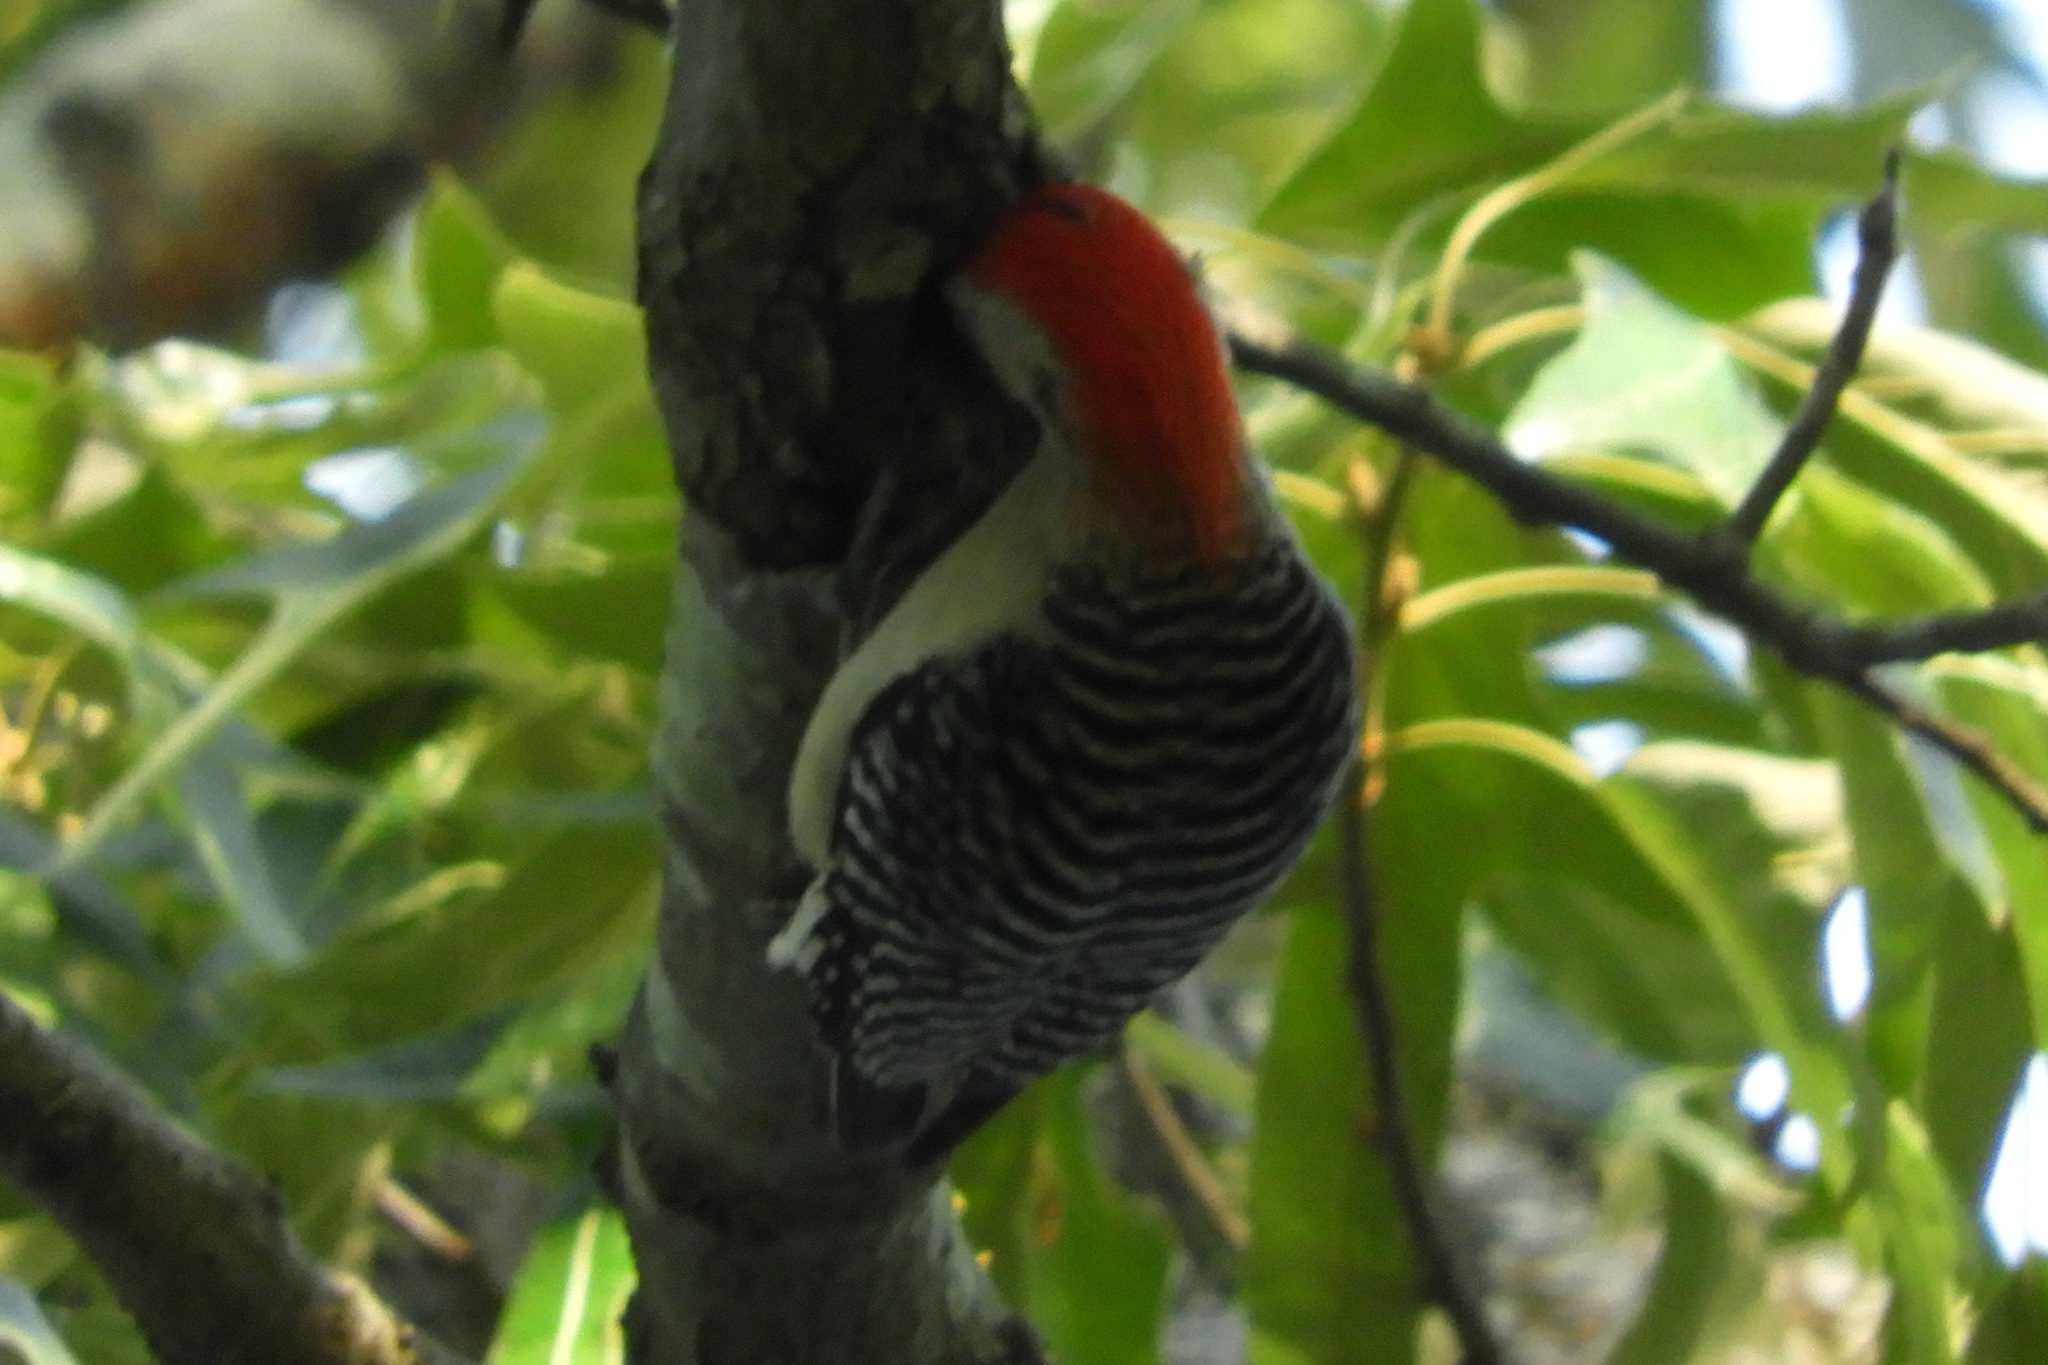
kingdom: Animalia
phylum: Chordata
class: Aves
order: Piciformes
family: Picidae
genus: Melanerpes
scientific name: Melanerpes carolinus
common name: Red-bellied woodpecker
